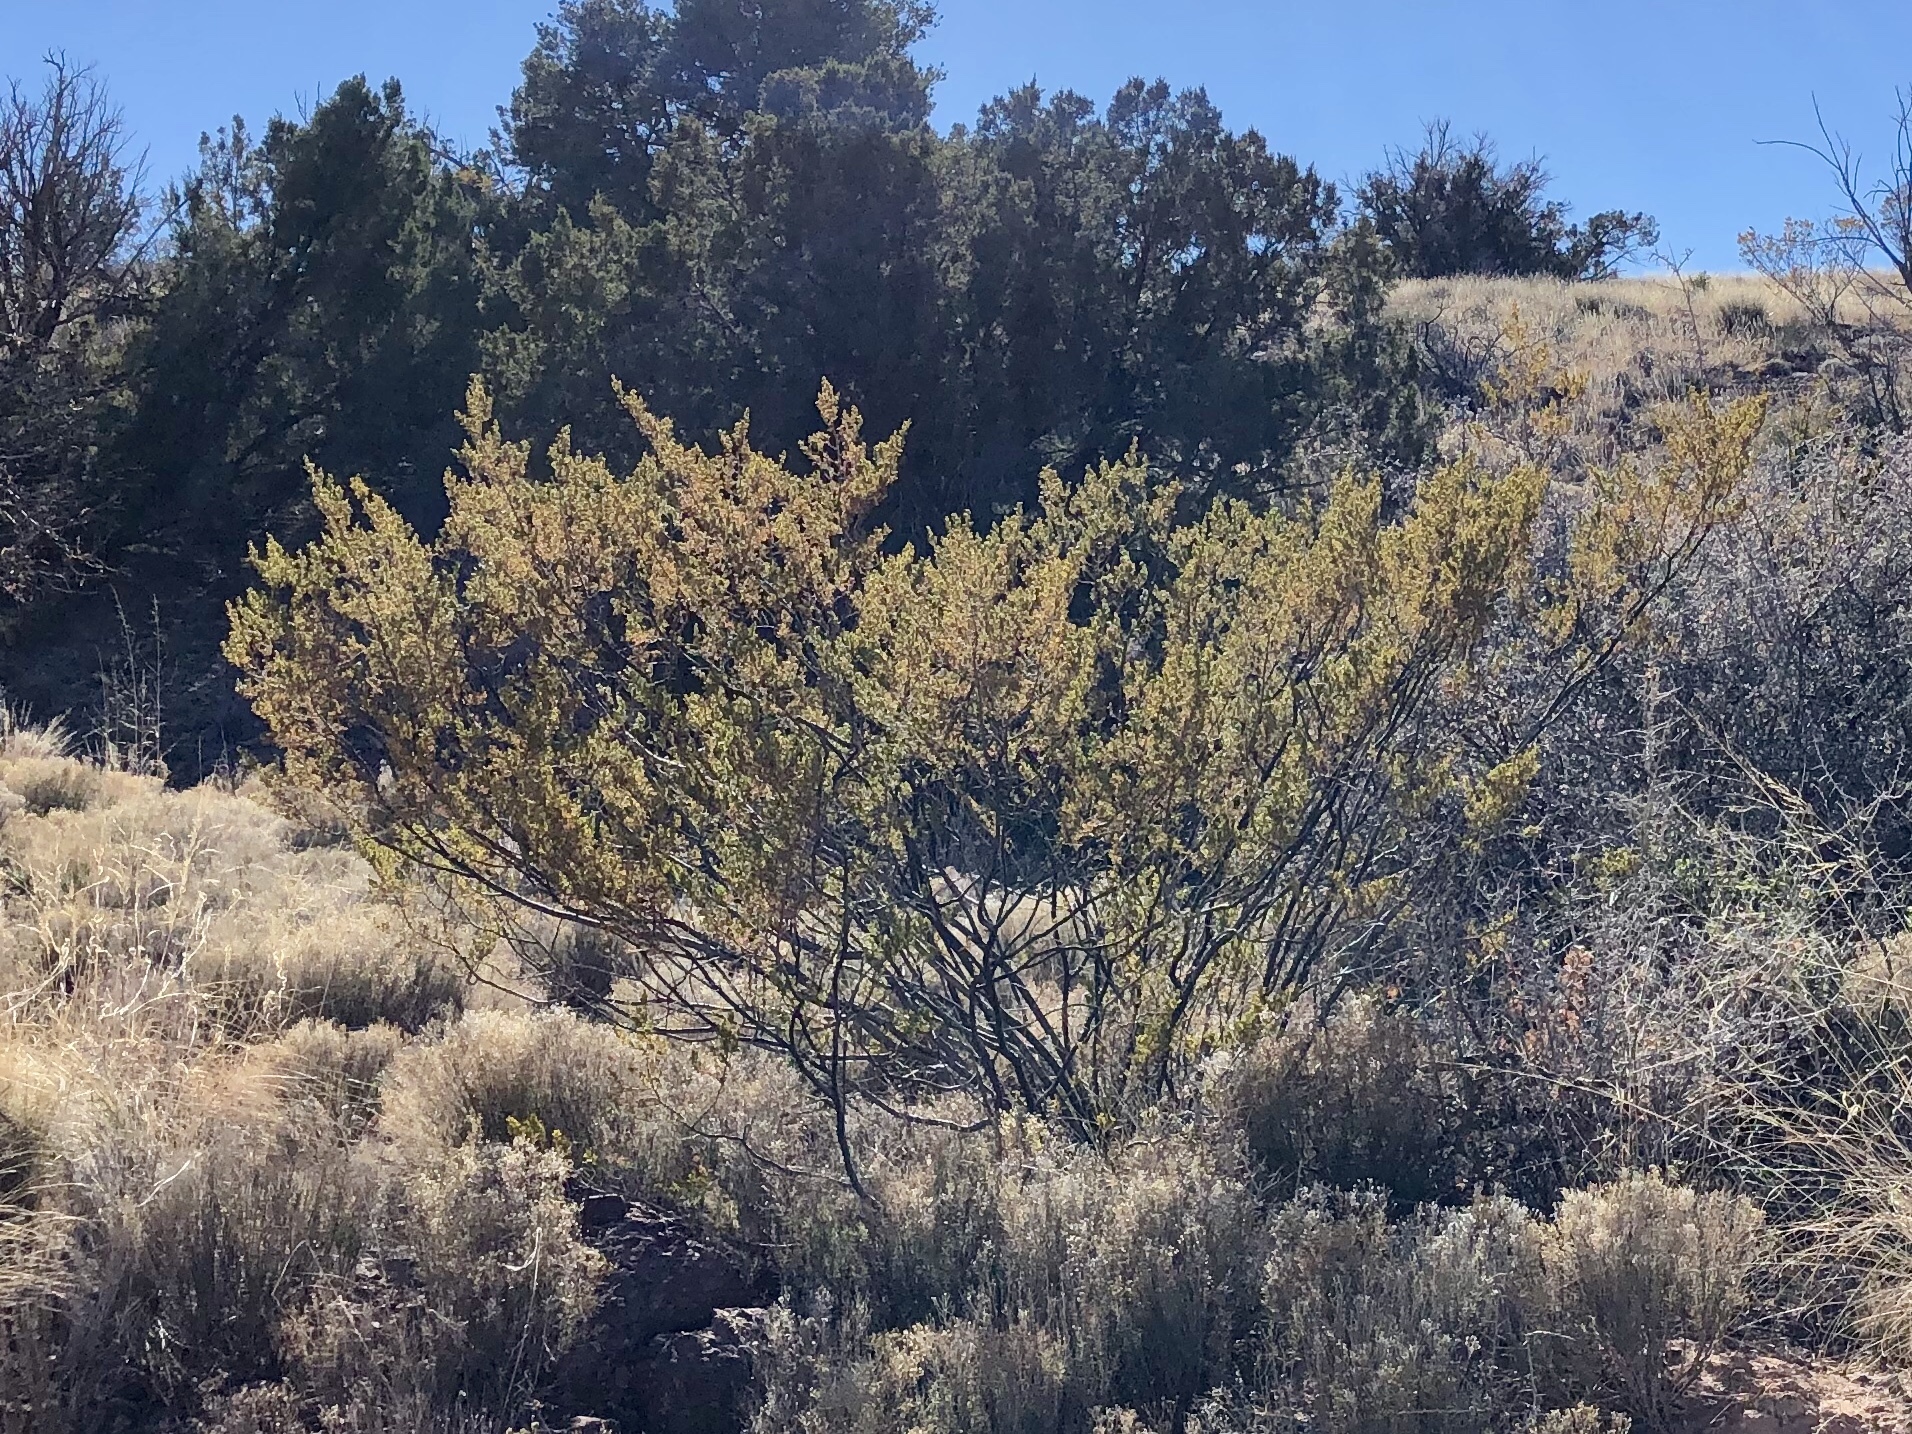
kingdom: Plantae
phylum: Tracheophyta
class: Magnoliopsida
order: Zygophyllales
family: Zygophyllaceae
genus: Larrea
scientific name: Larrea tridentata
